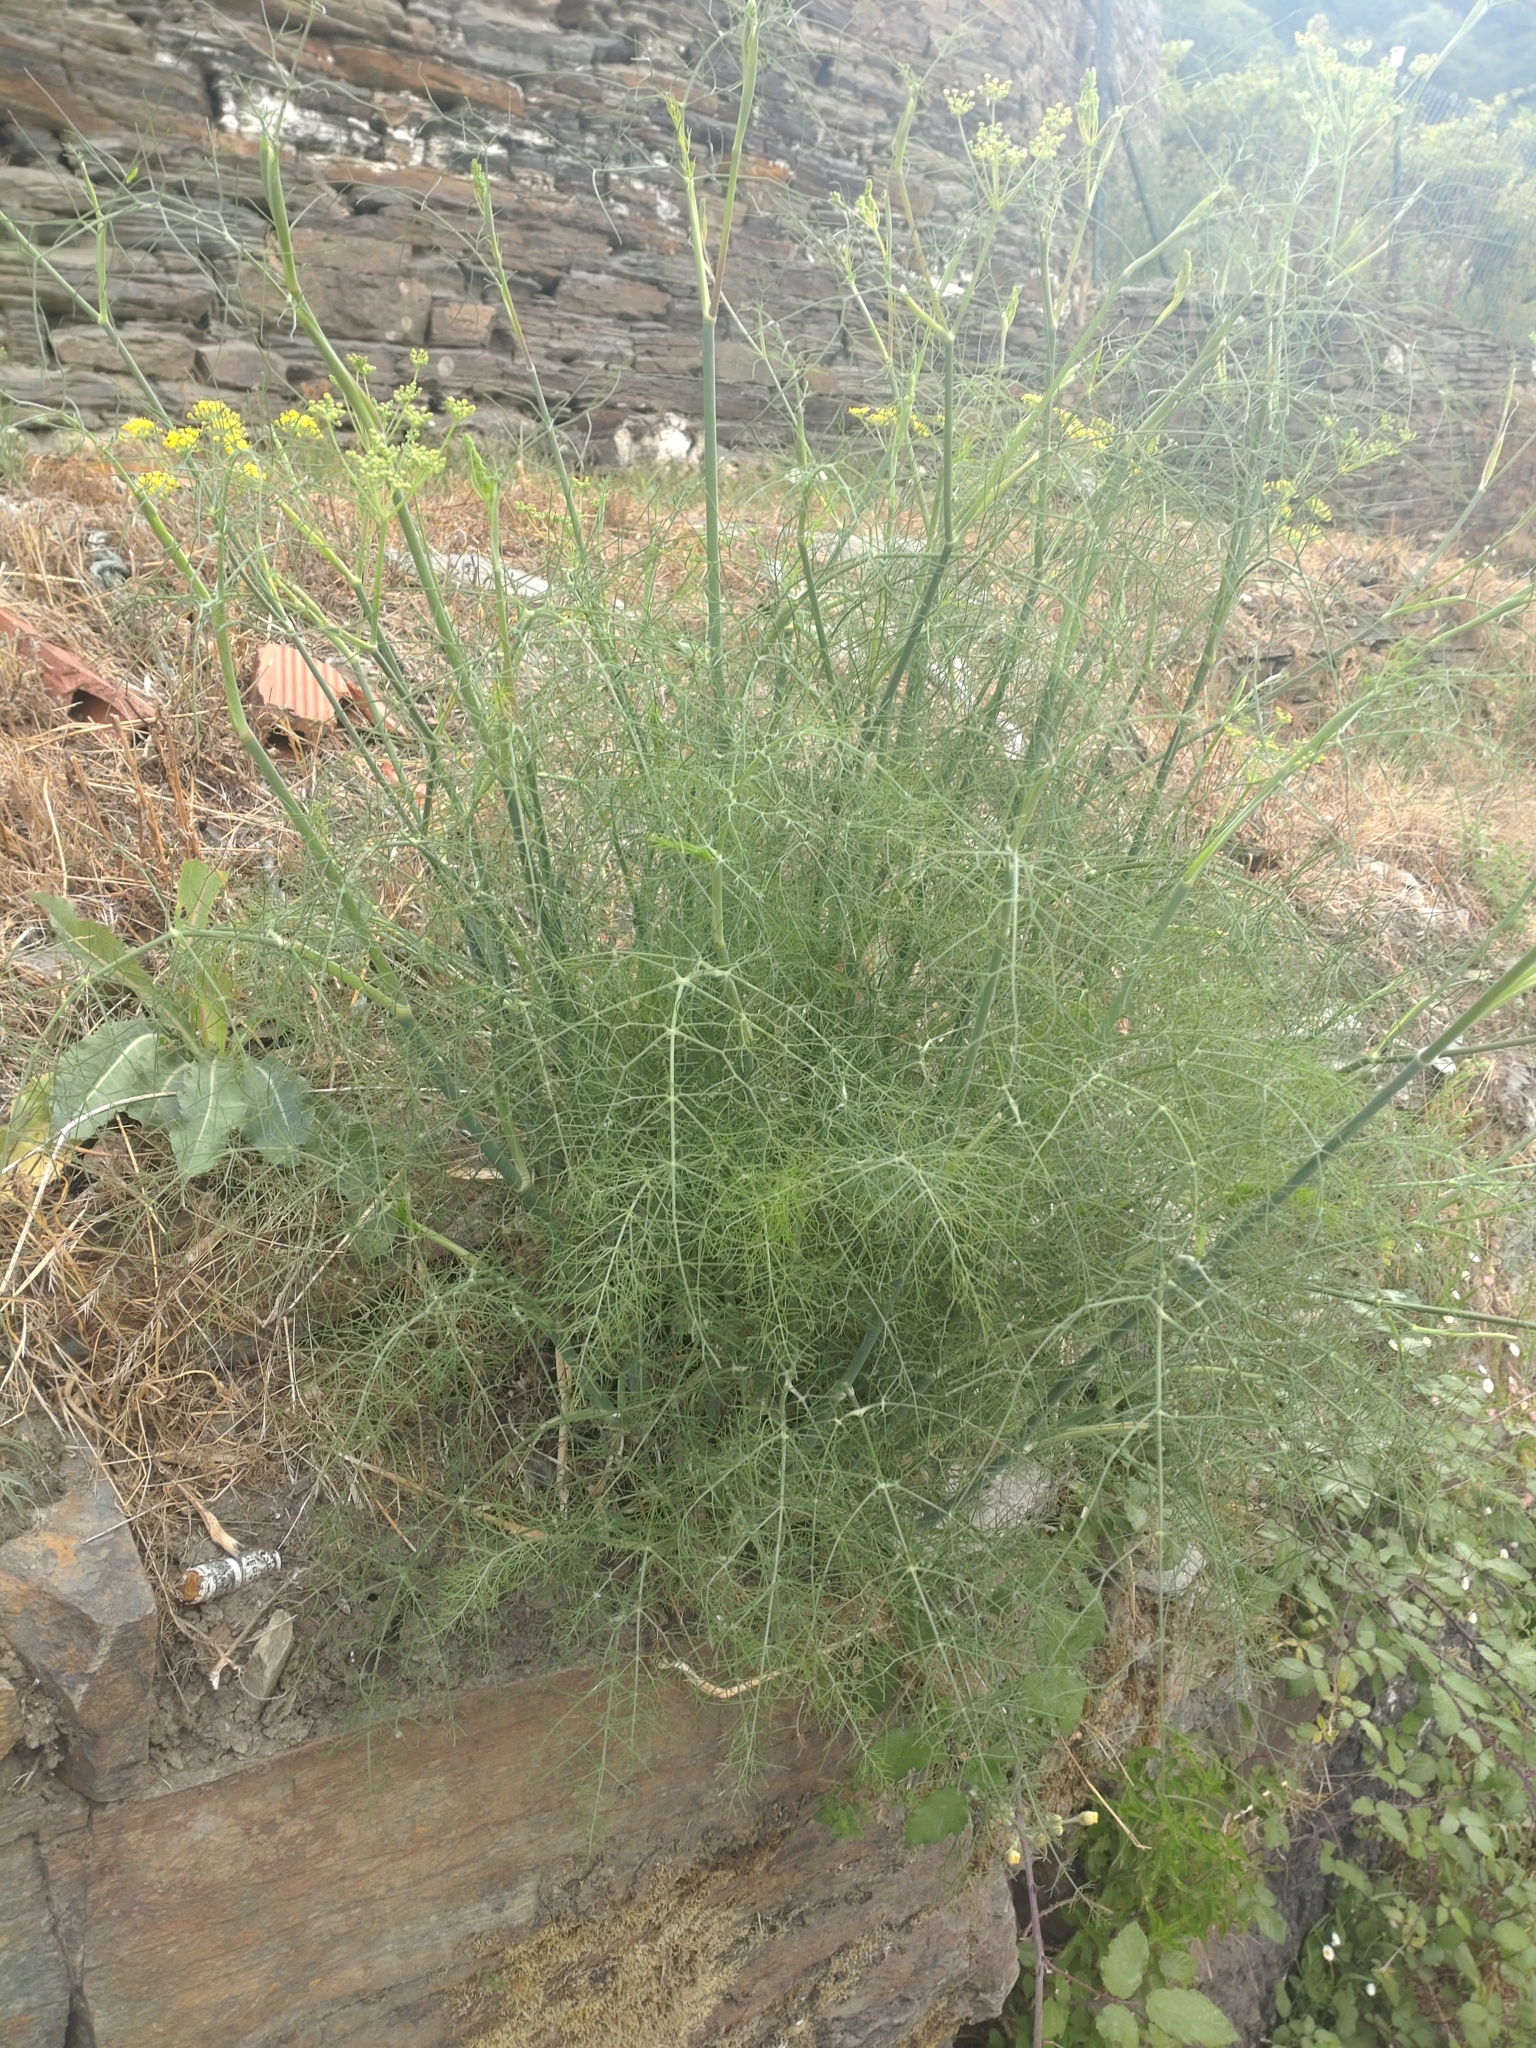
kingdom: Plantae
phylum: Tracheophyta
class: Magnoliopsida
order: Apiales
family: Apiaceae
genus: Foeniculum
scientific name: Foeniculum vulgare
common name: Fennel
